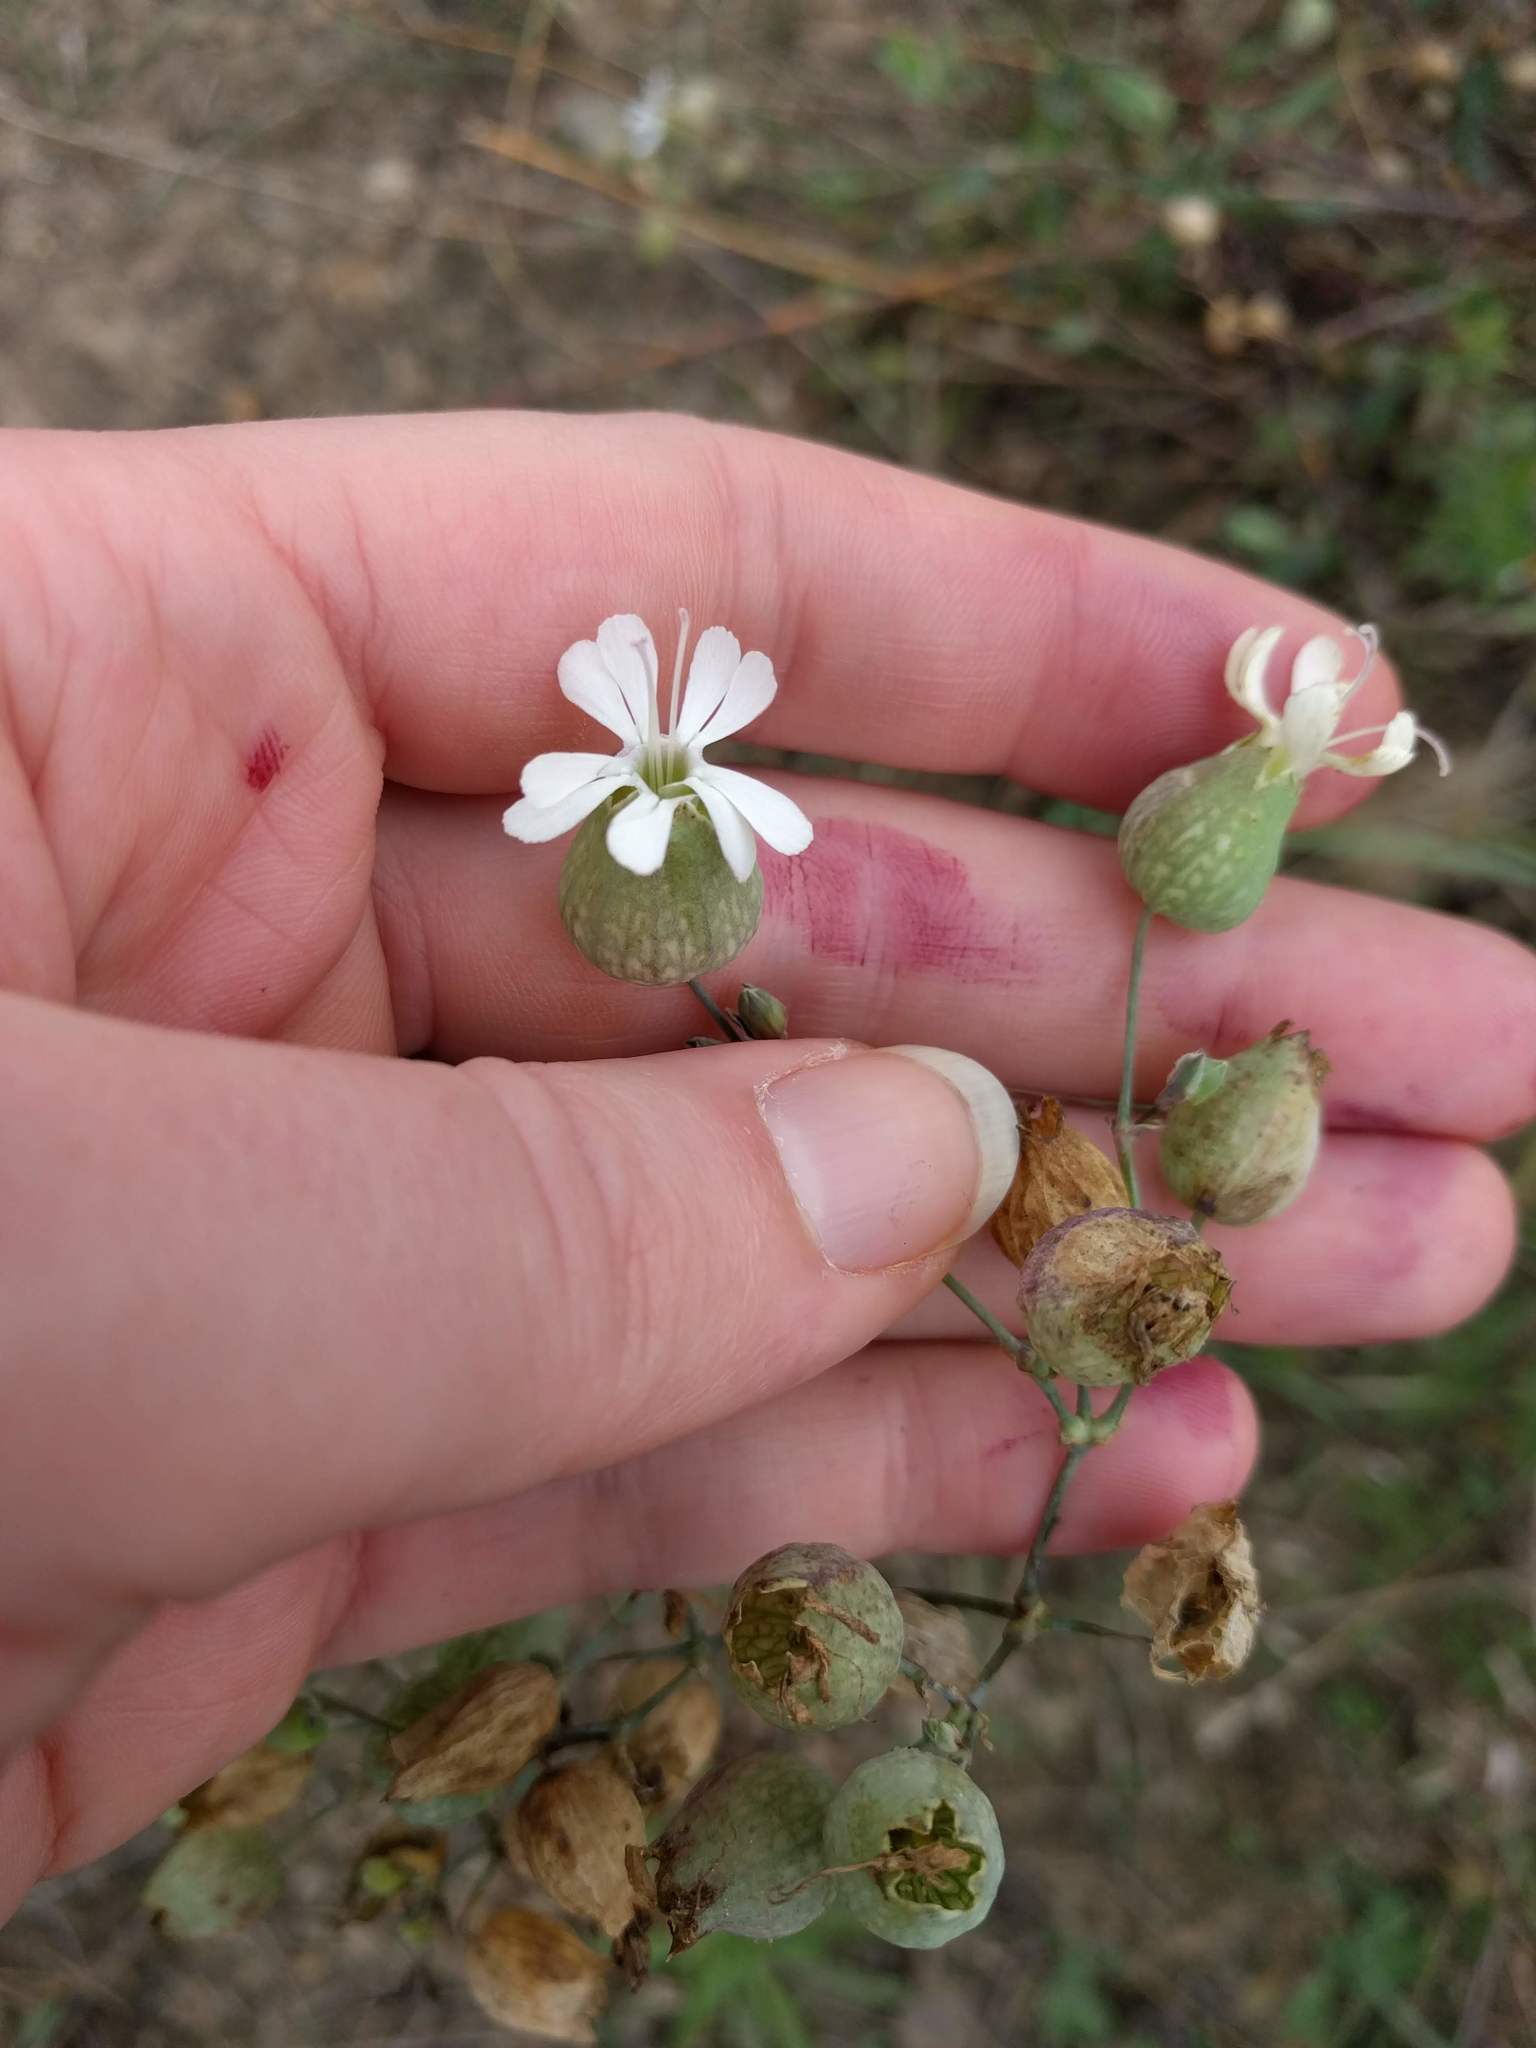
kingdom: Plantae
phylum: Tracheophyta
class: Magnoliopsida
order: Caryophyllales
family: Caryophyllaceae
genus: Silene
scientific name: Silene vulgaris
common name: Bladder campion
